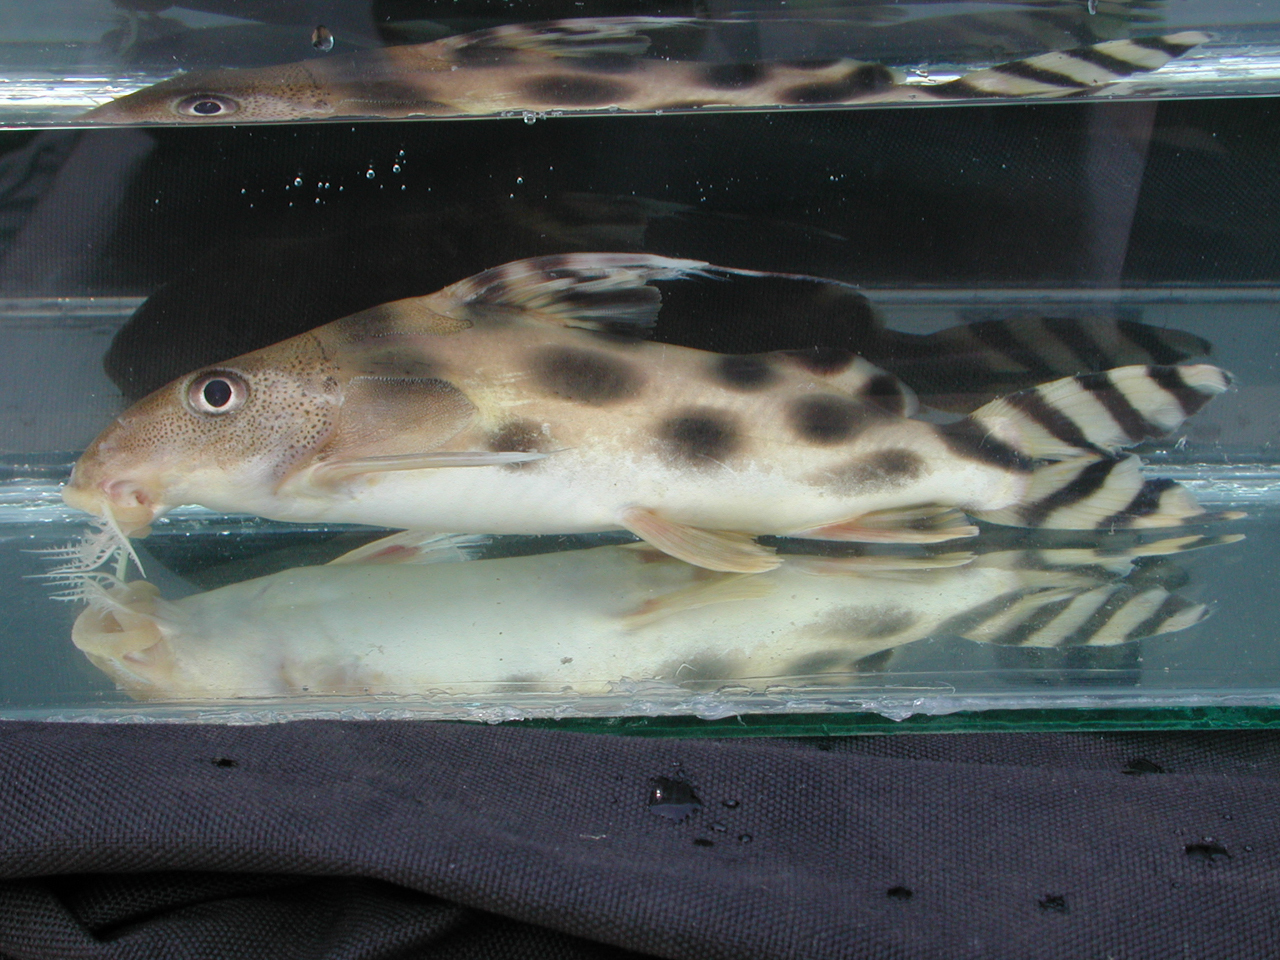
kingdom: Animalia
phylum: Chordata
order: Siluriformes
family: Mochokidae
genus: Synodontis
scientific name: Synodontis decorus
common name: Barredtail squeaker
